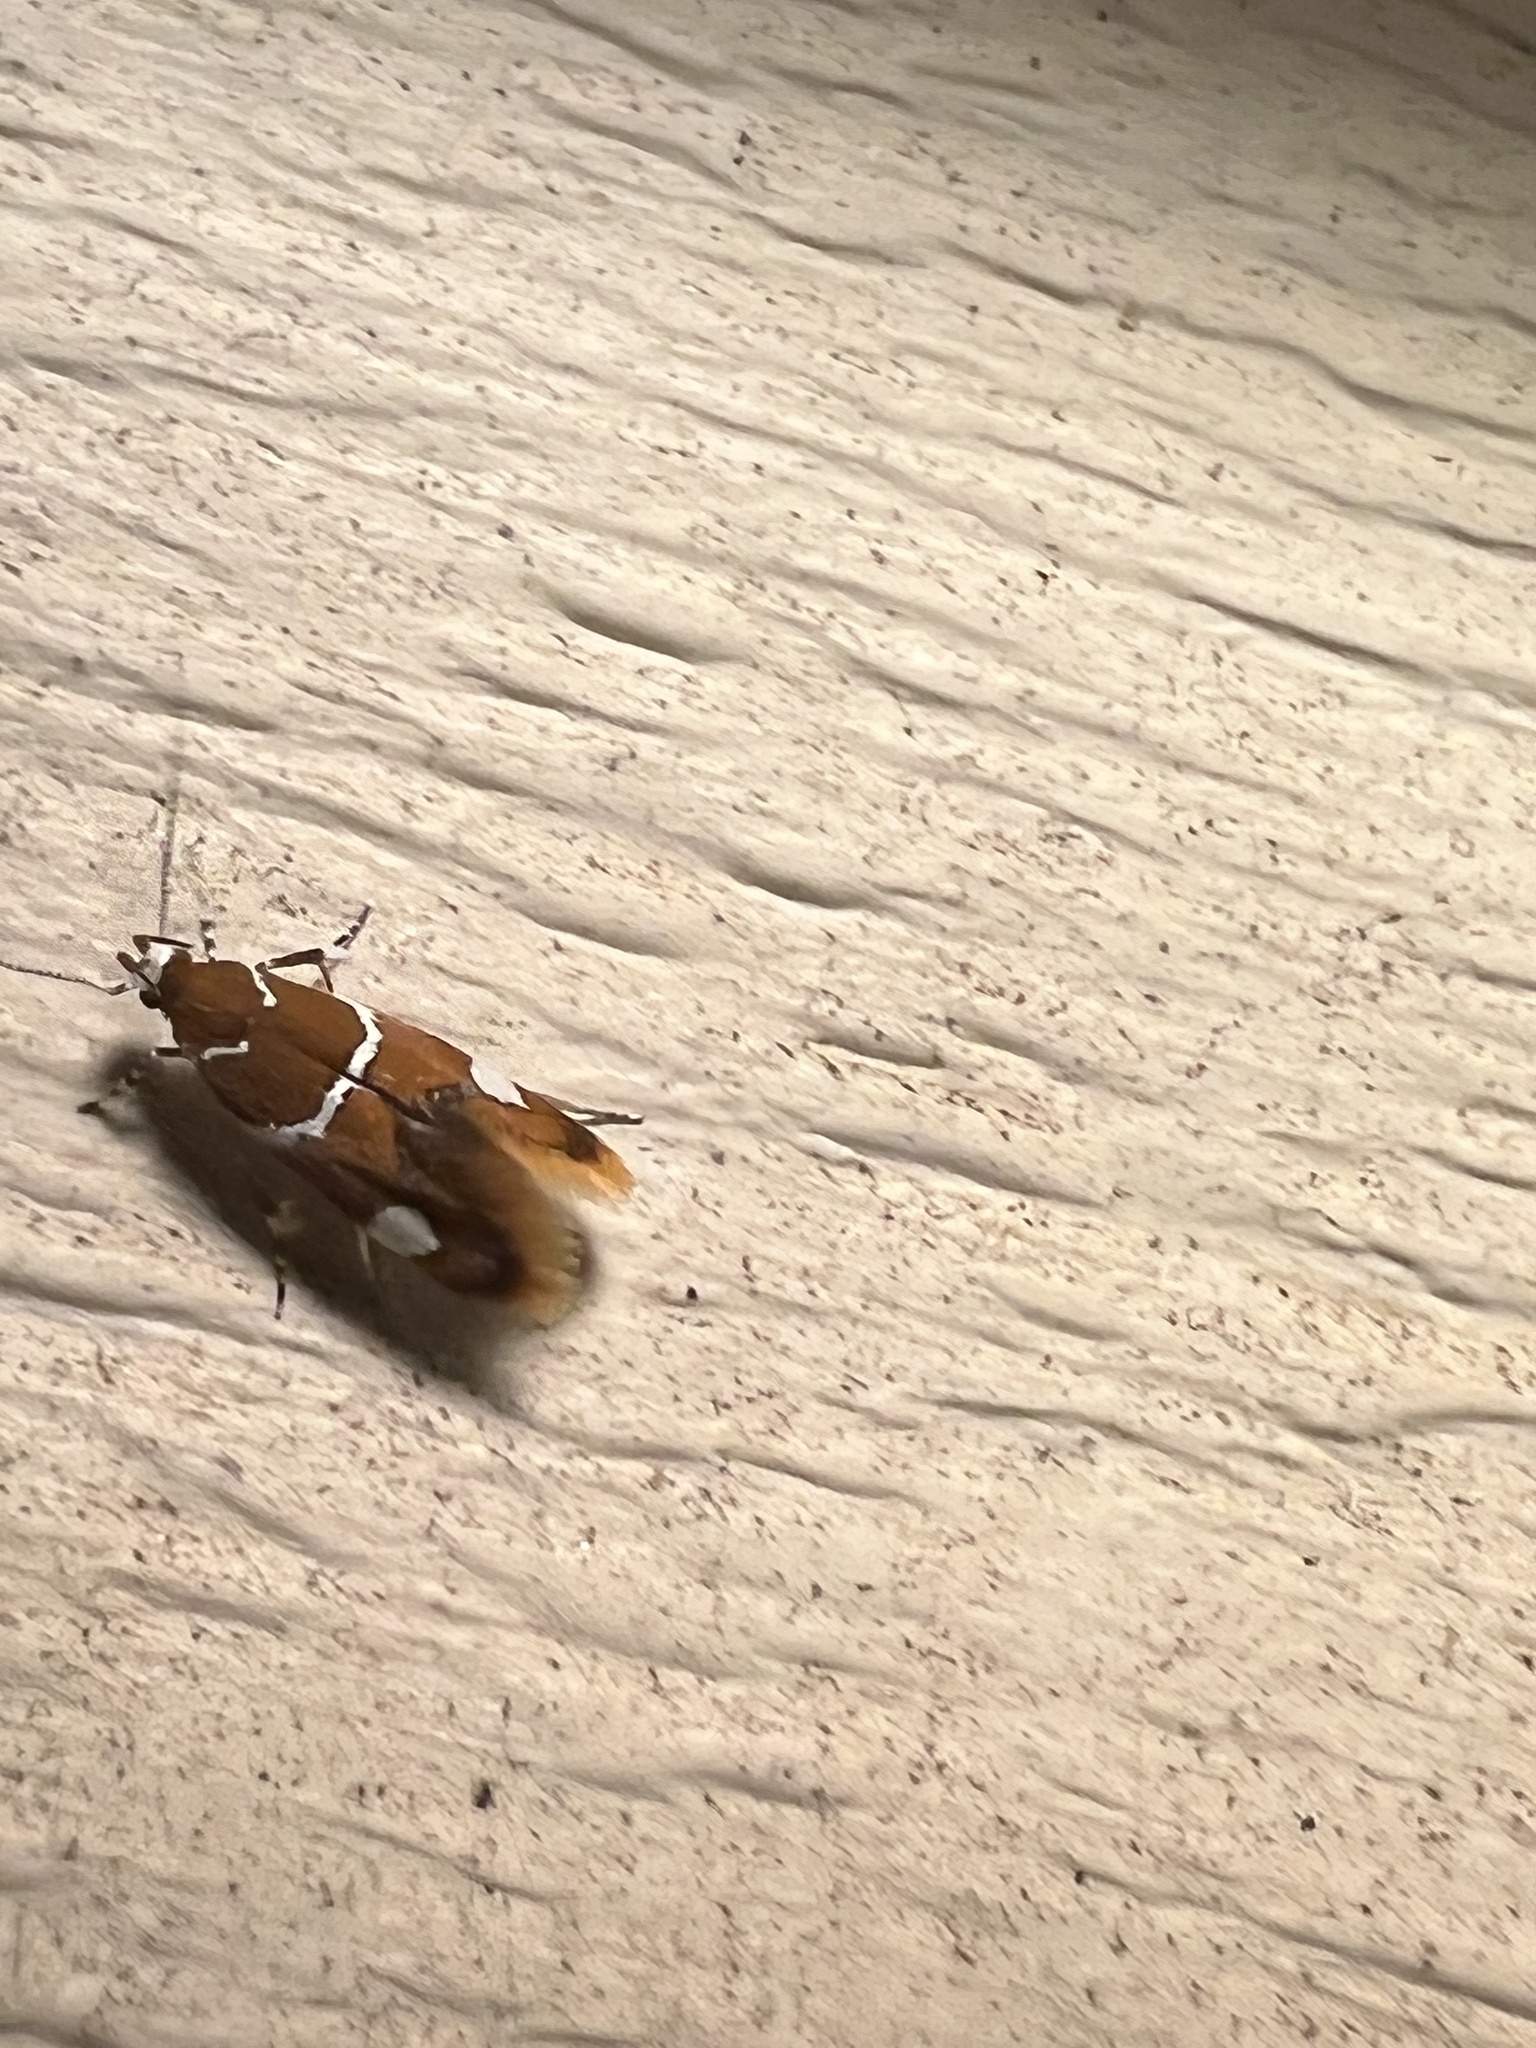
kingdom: Animalia
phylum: Arthropoda
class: Insecta
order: Lepidoptera
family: Oecophoridae
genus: Promalactis
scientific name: Promalactis suzukiella
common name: Moth
